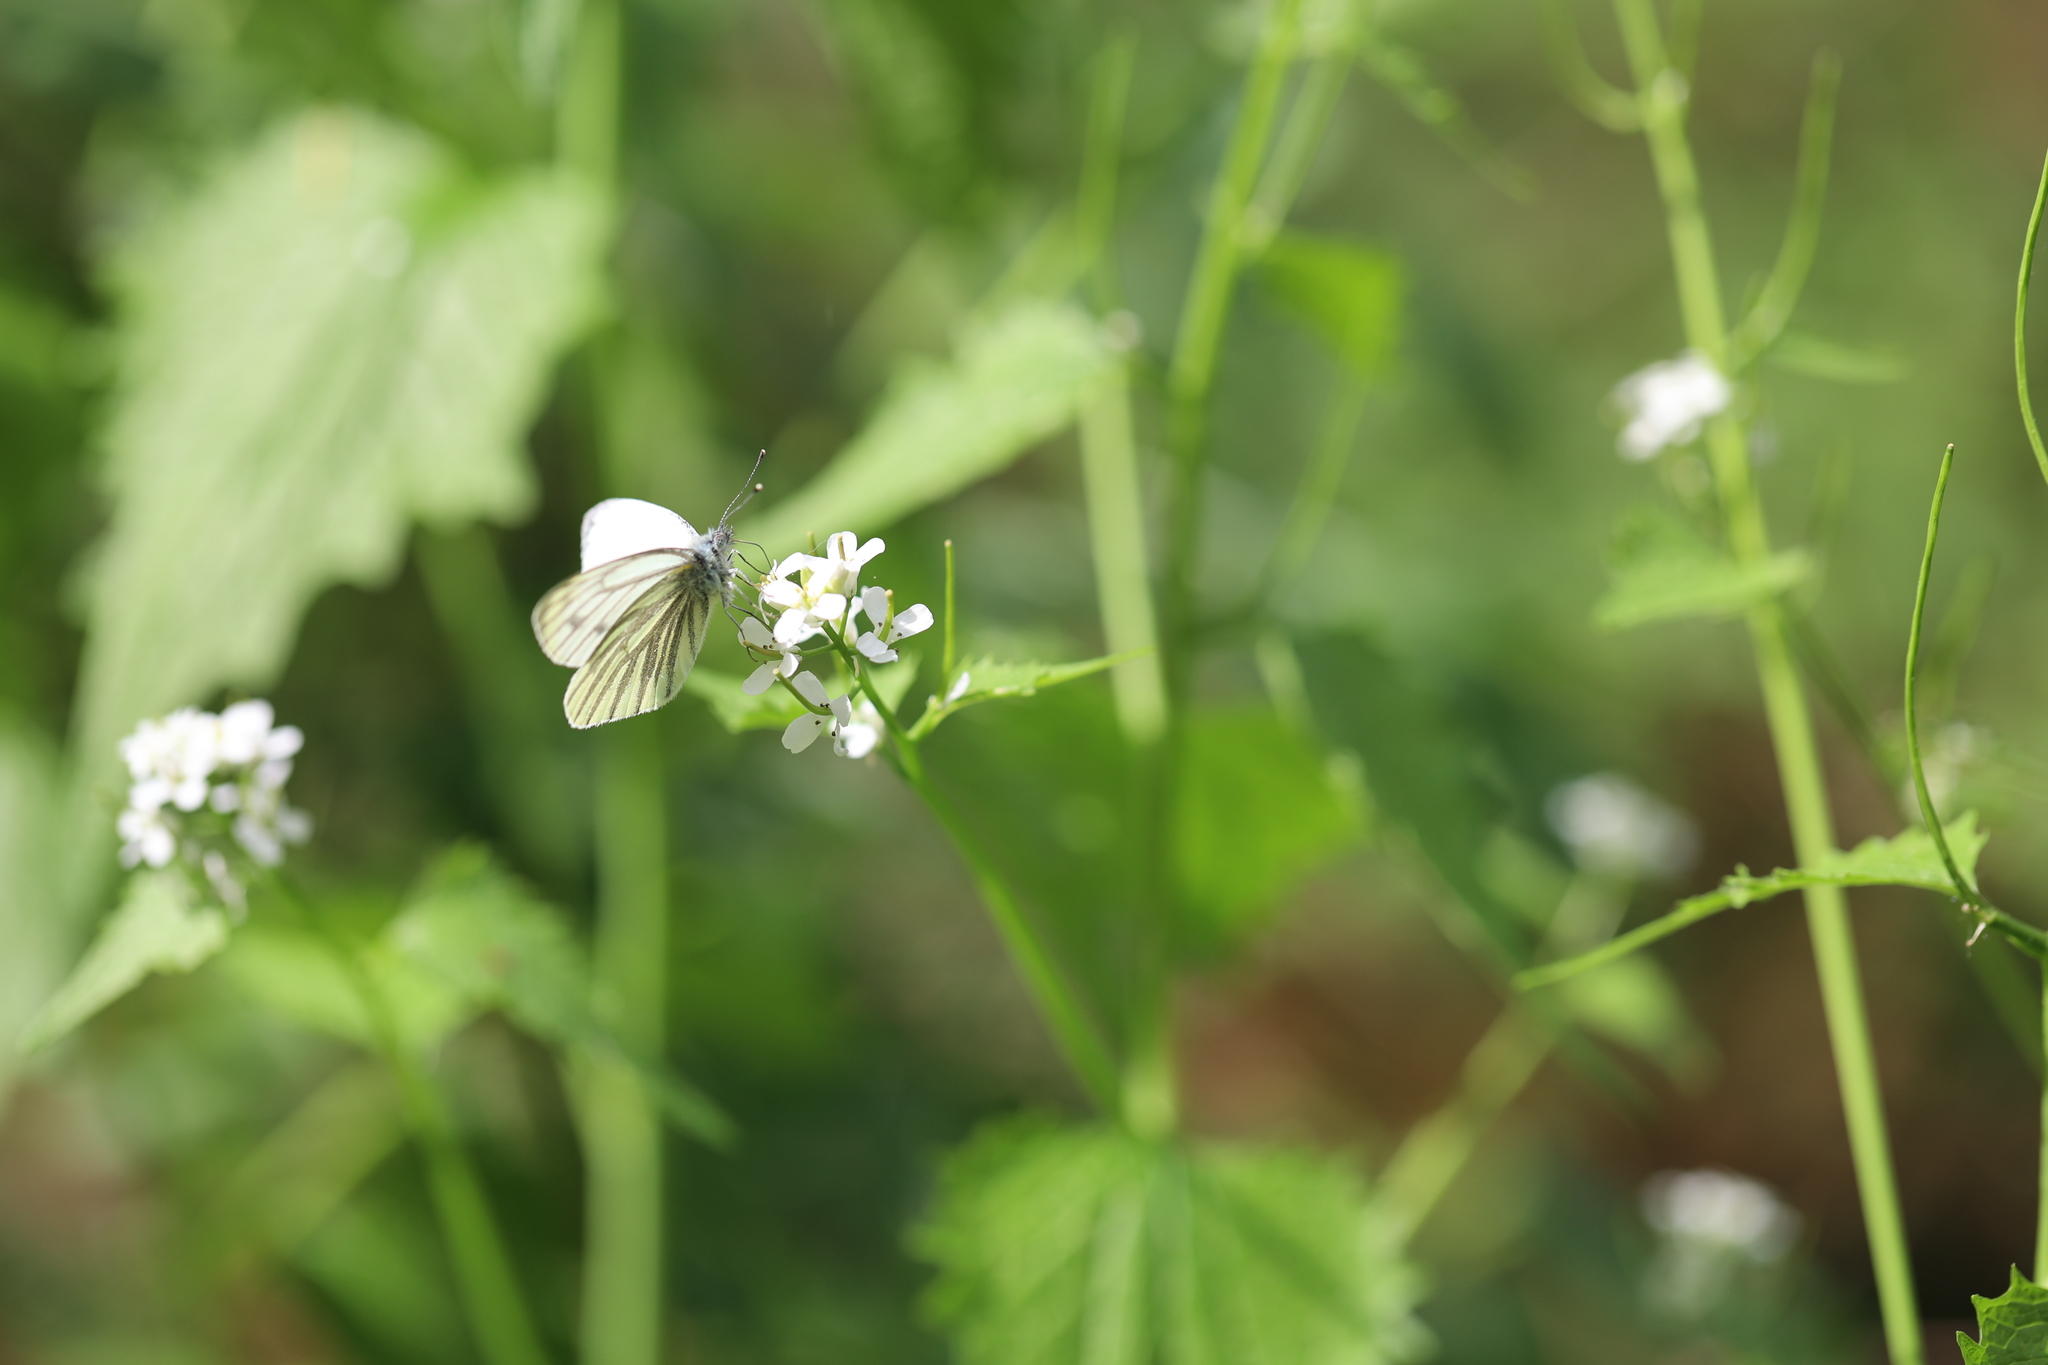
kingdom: Animalia
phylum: Arthropoda
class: Insecta
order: Lepidoptera
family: Pieridae
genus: Pieris
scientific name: Pieris napi
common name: Green-veined white
